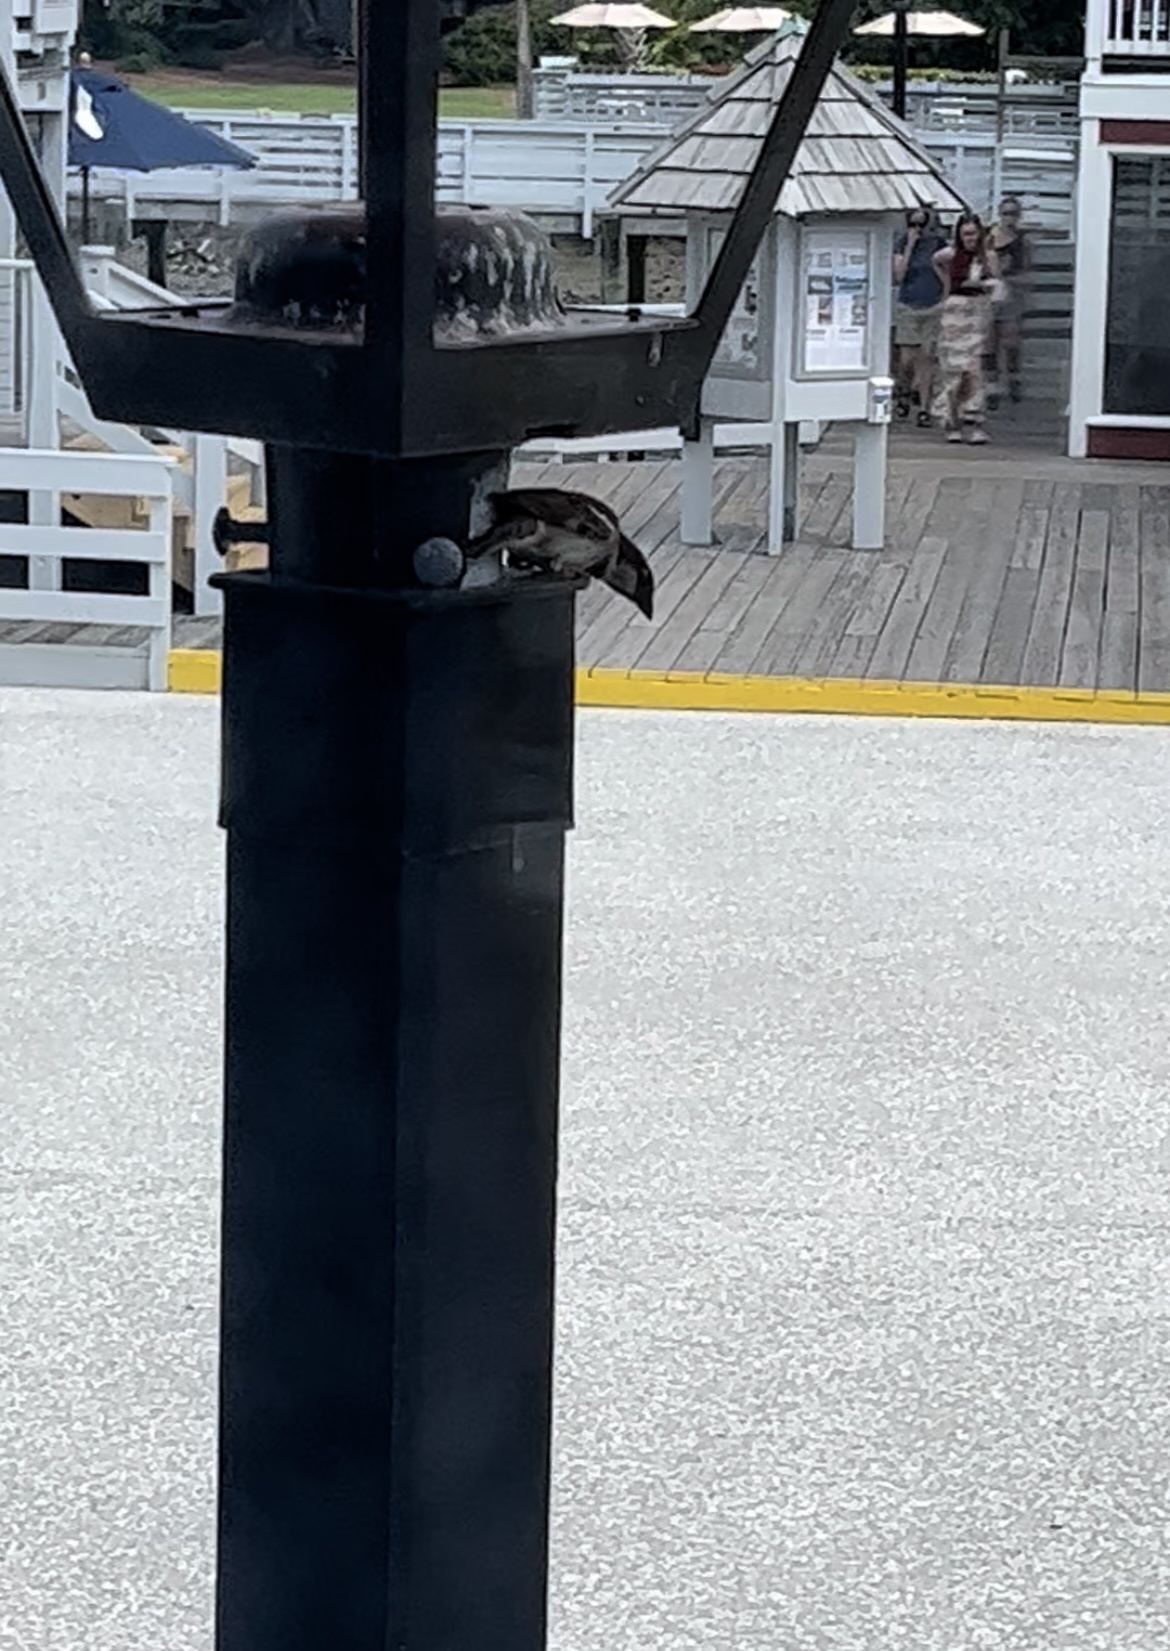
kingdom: Animalia
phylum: Chordata
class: Aves
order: Passeriformes
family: Passeridae
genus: Passer
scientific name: Passer domesticus
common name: House sparrow
